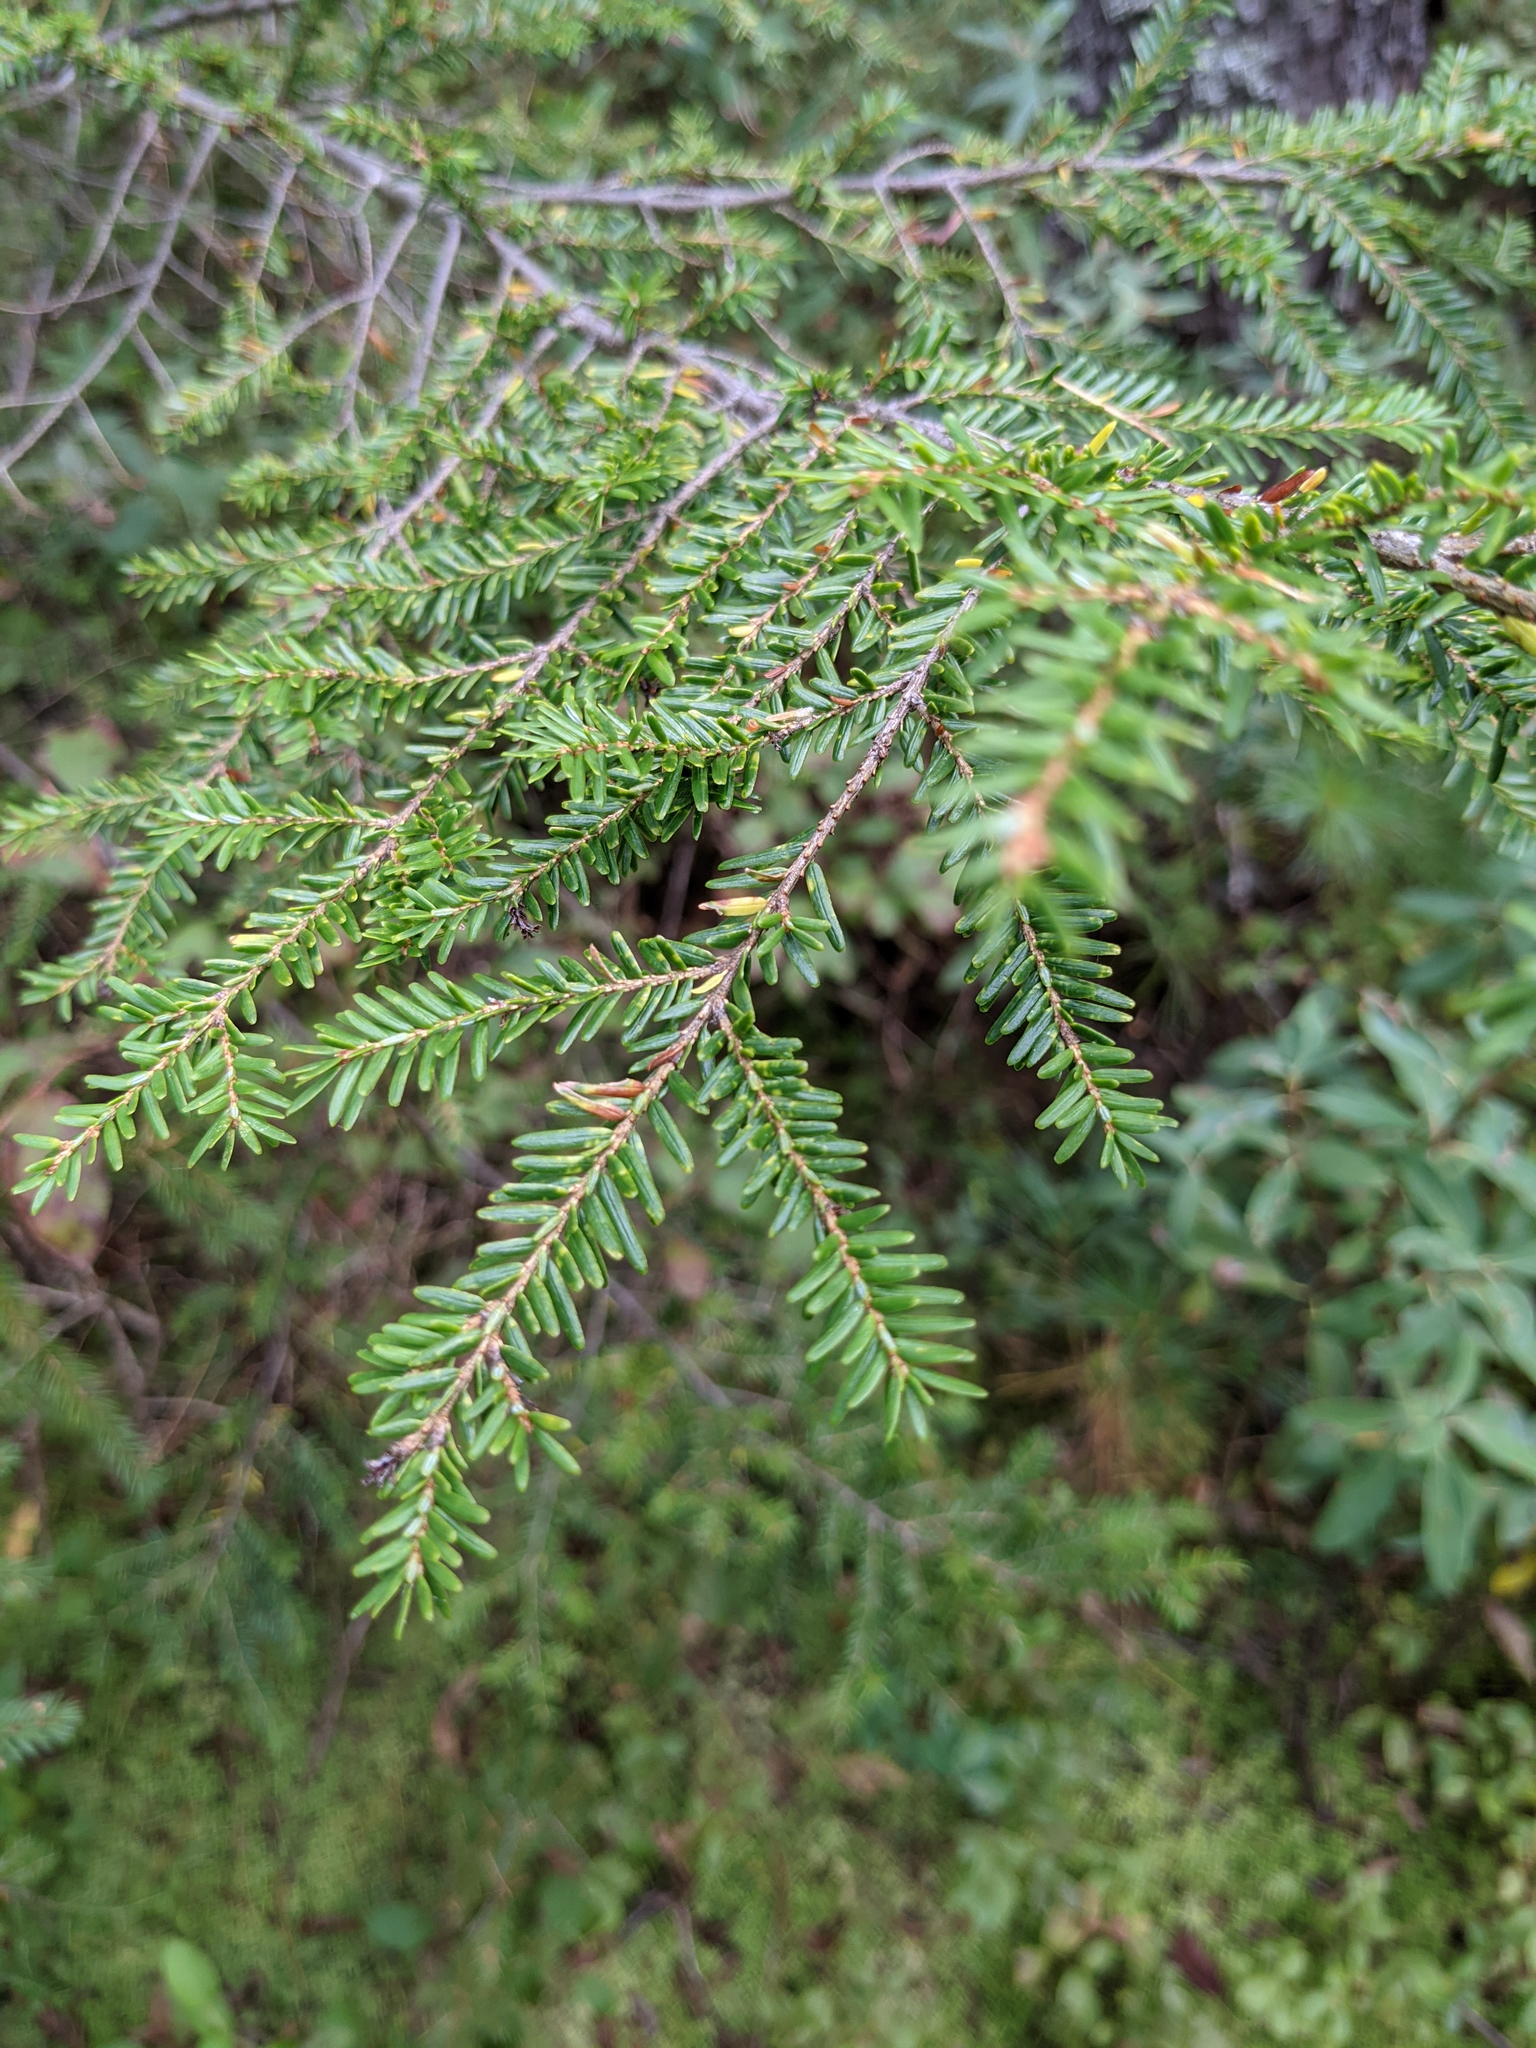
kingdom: Plantae
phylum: Tracheophyta
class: Pinopsida
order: Pinales
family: Pinaceae
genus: Tsuga
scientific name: Tsuga canadensis
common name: Eastern hemlock
